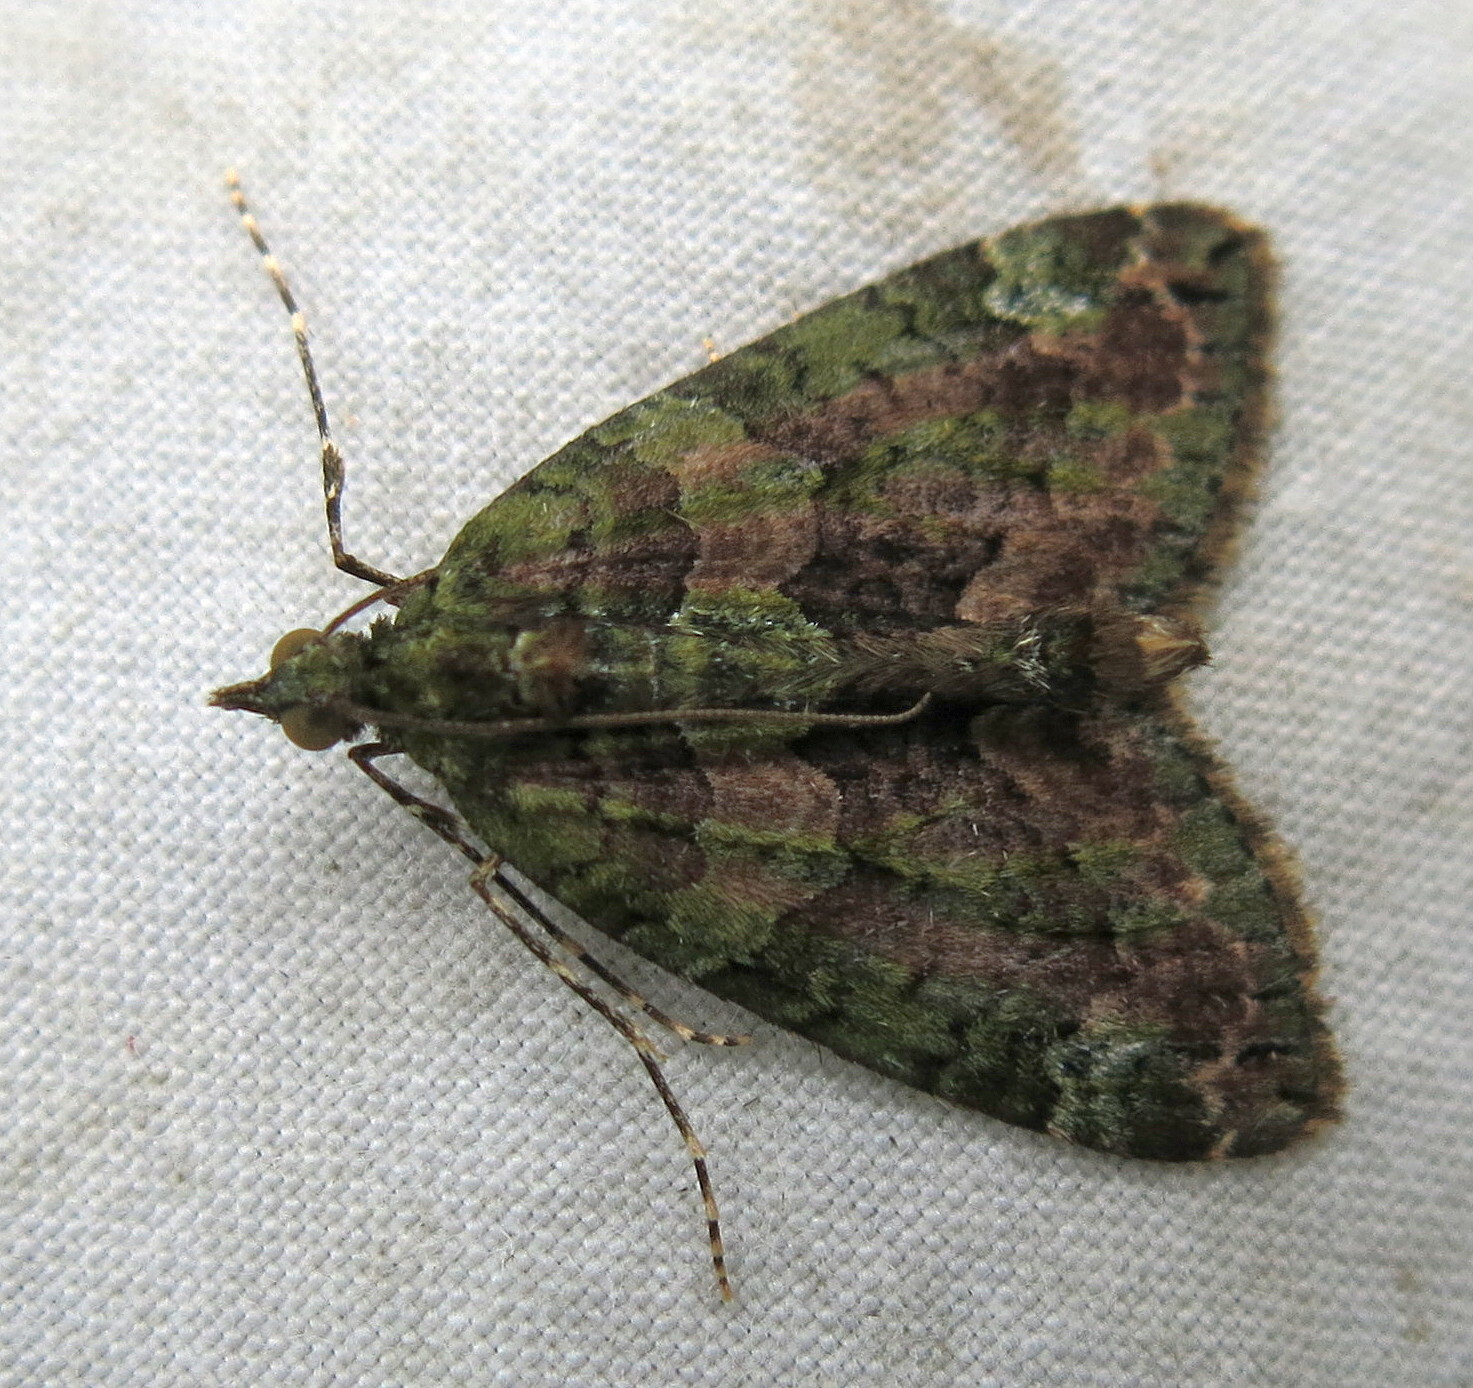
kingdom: Animalia
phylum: Arthropoda
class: Insecta
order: Lepidoptera
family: Geometridae
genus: Chloroclysta
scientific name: Chloroclysta siterata
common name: Red-green carpet
